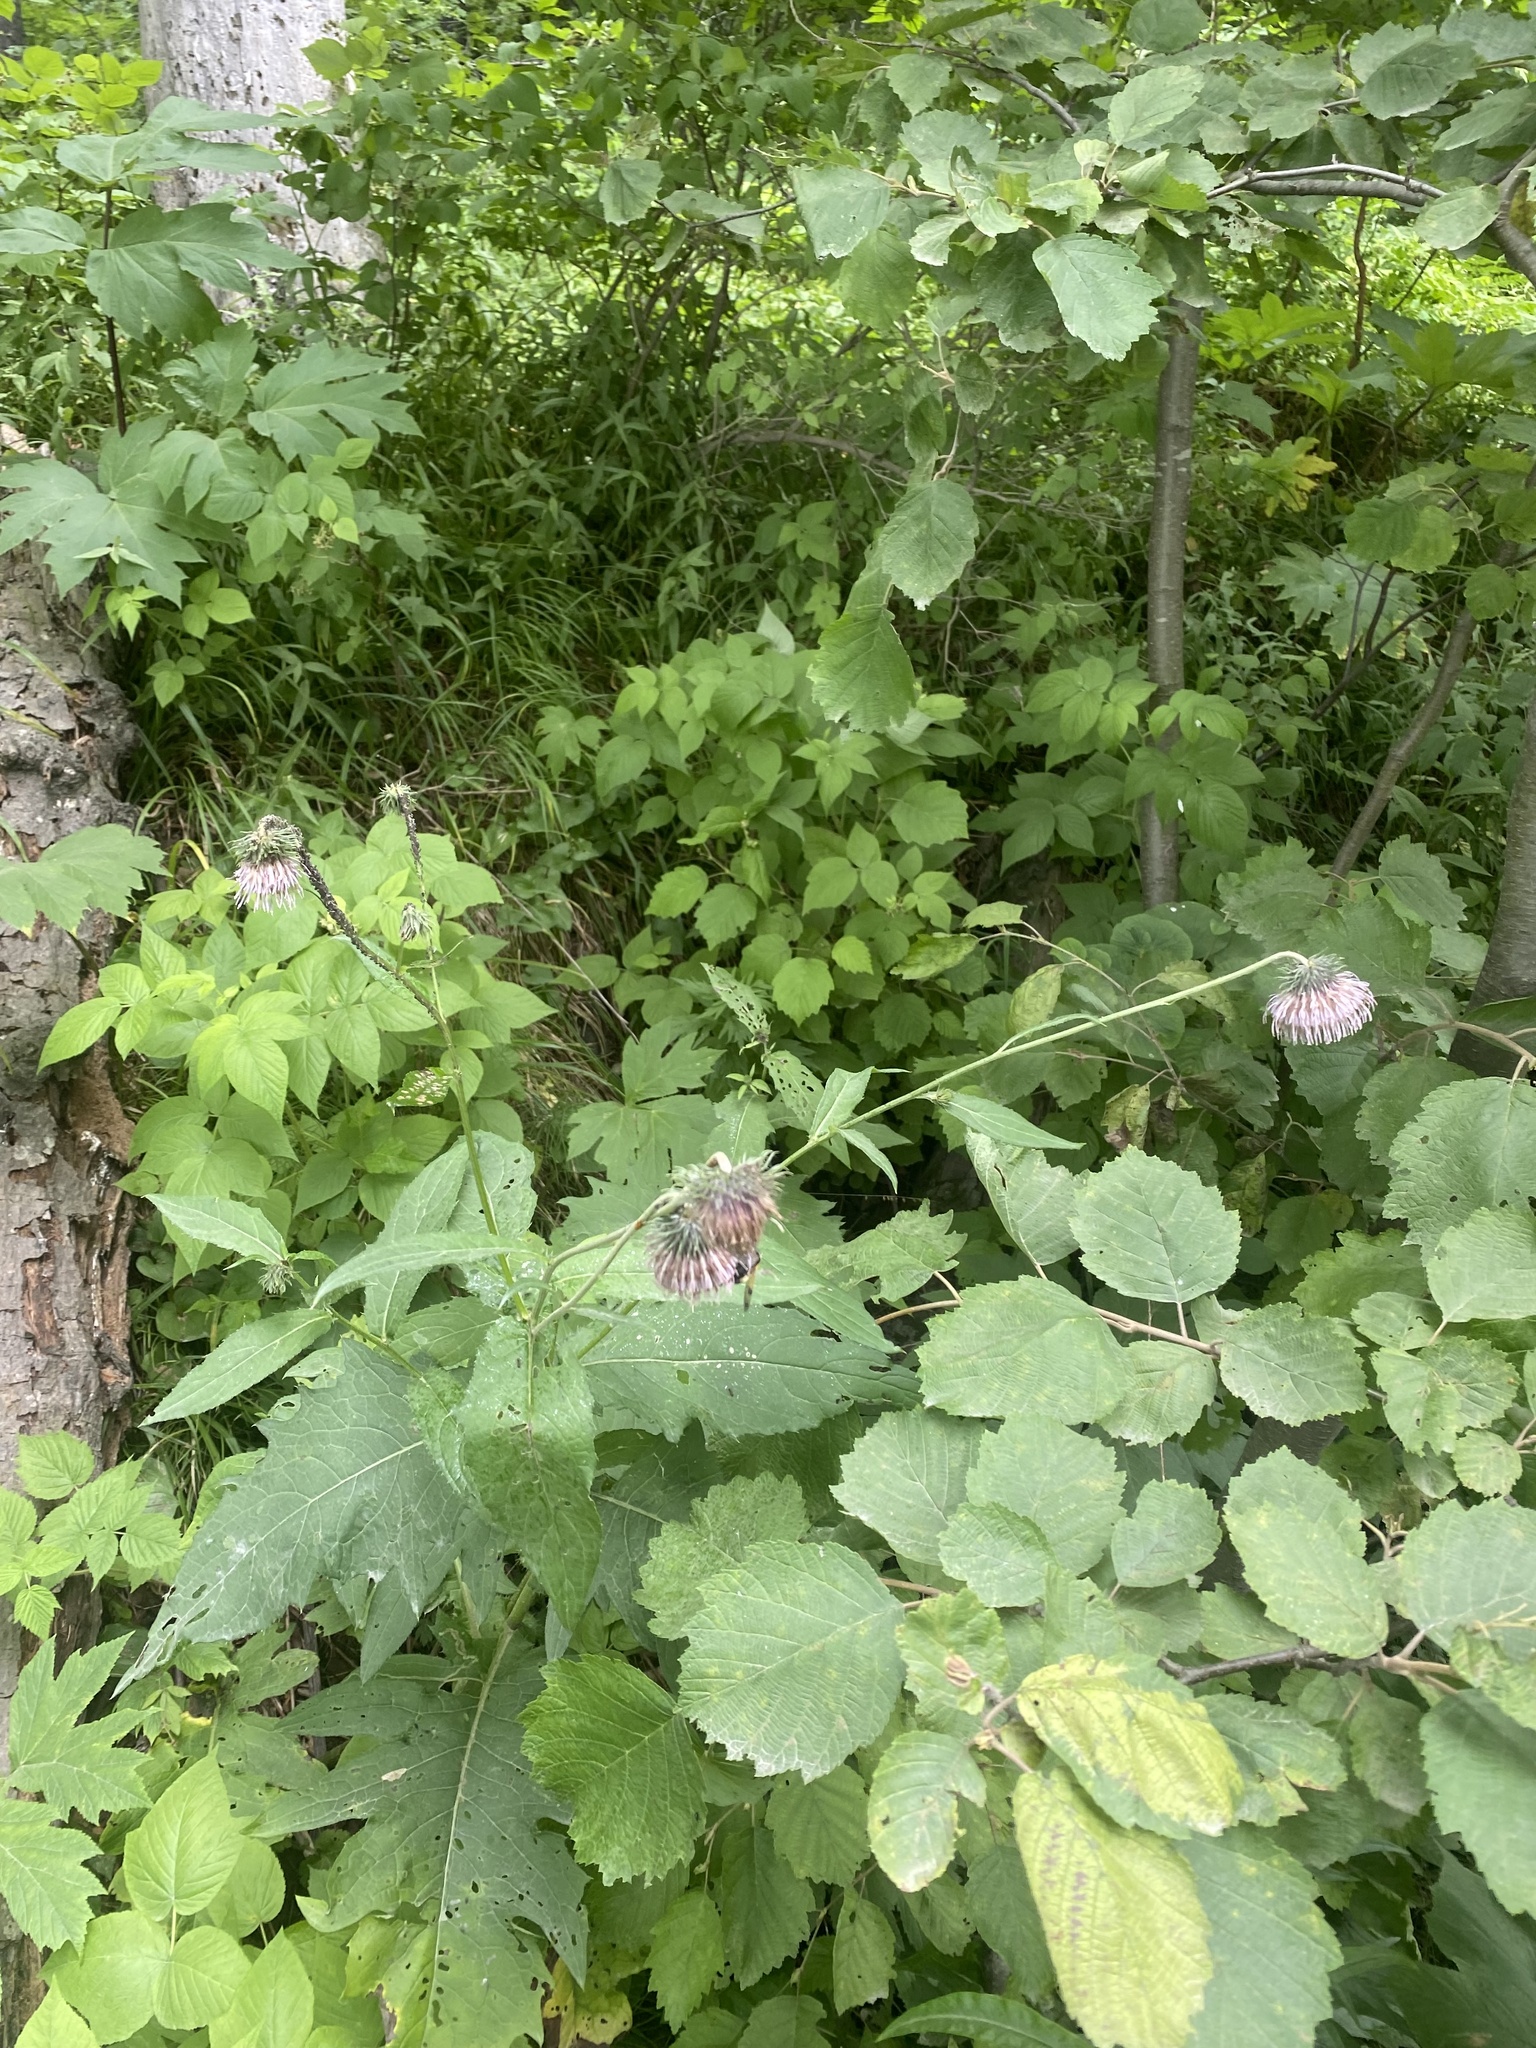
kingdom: Plantae
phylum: Tracheophyta
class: Magnoliopsida
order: Asterales
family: Asteraceae
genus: Cirsium
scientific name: Cirsium kamtschaticum
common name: Kamchatka thistle
